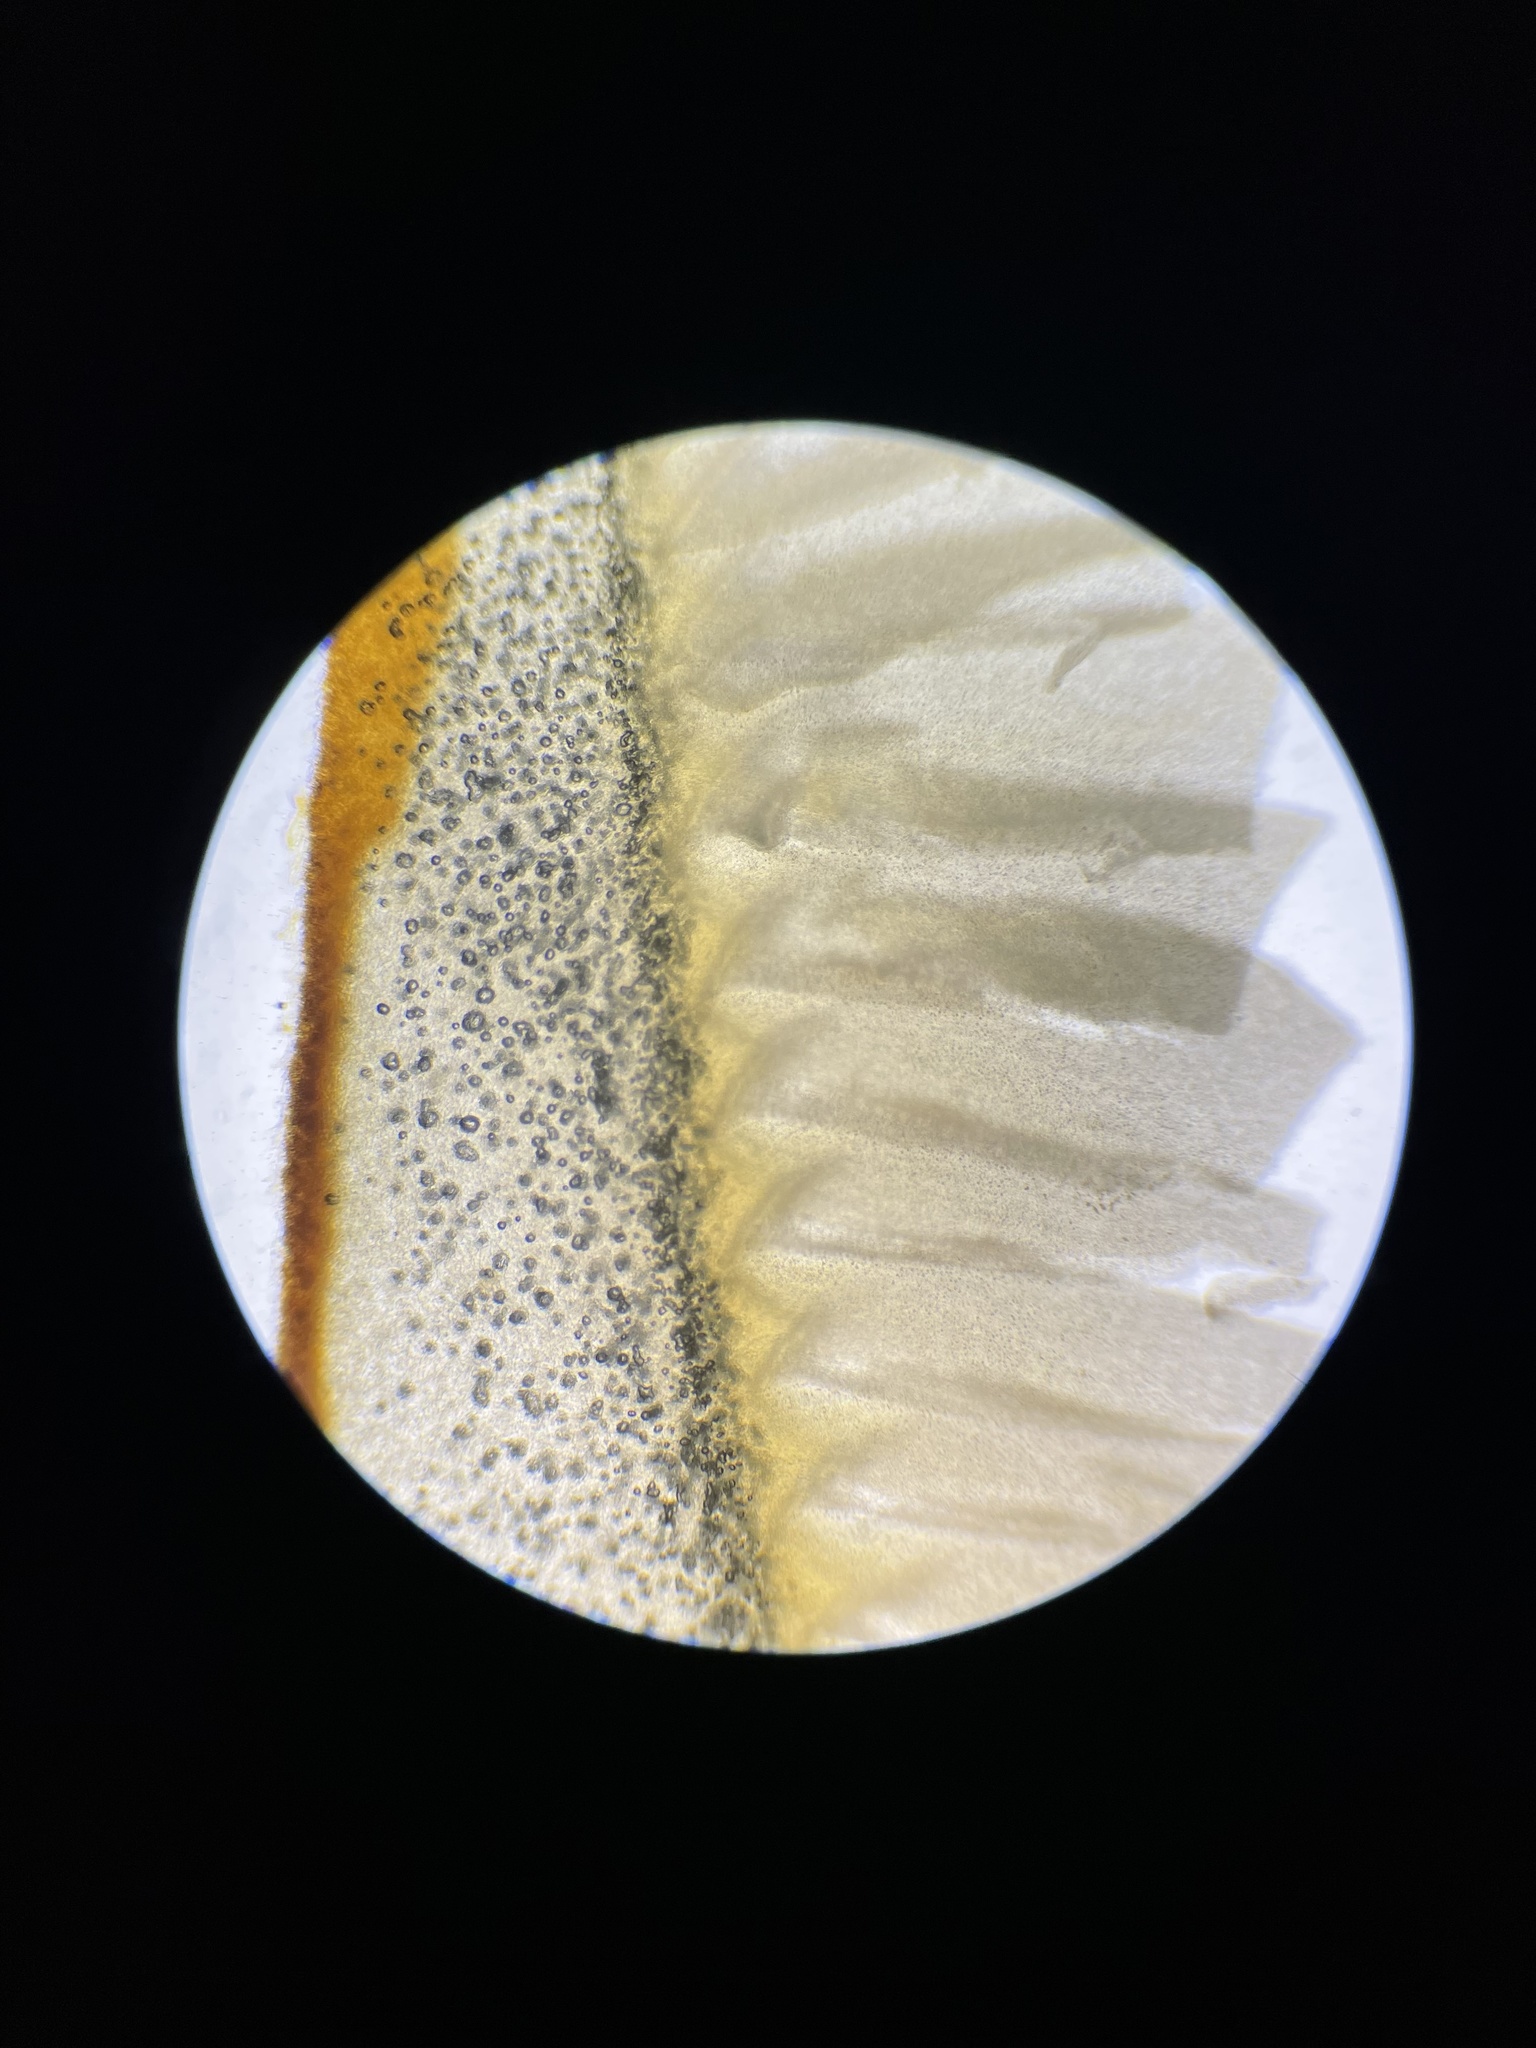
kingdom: Fungi
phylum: Basidiomycota
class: Agaricomycetes
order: Agaricales
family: Strophariaceae
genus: Hypholoma
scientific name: Hypholoma lateritium
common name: Brick caps
